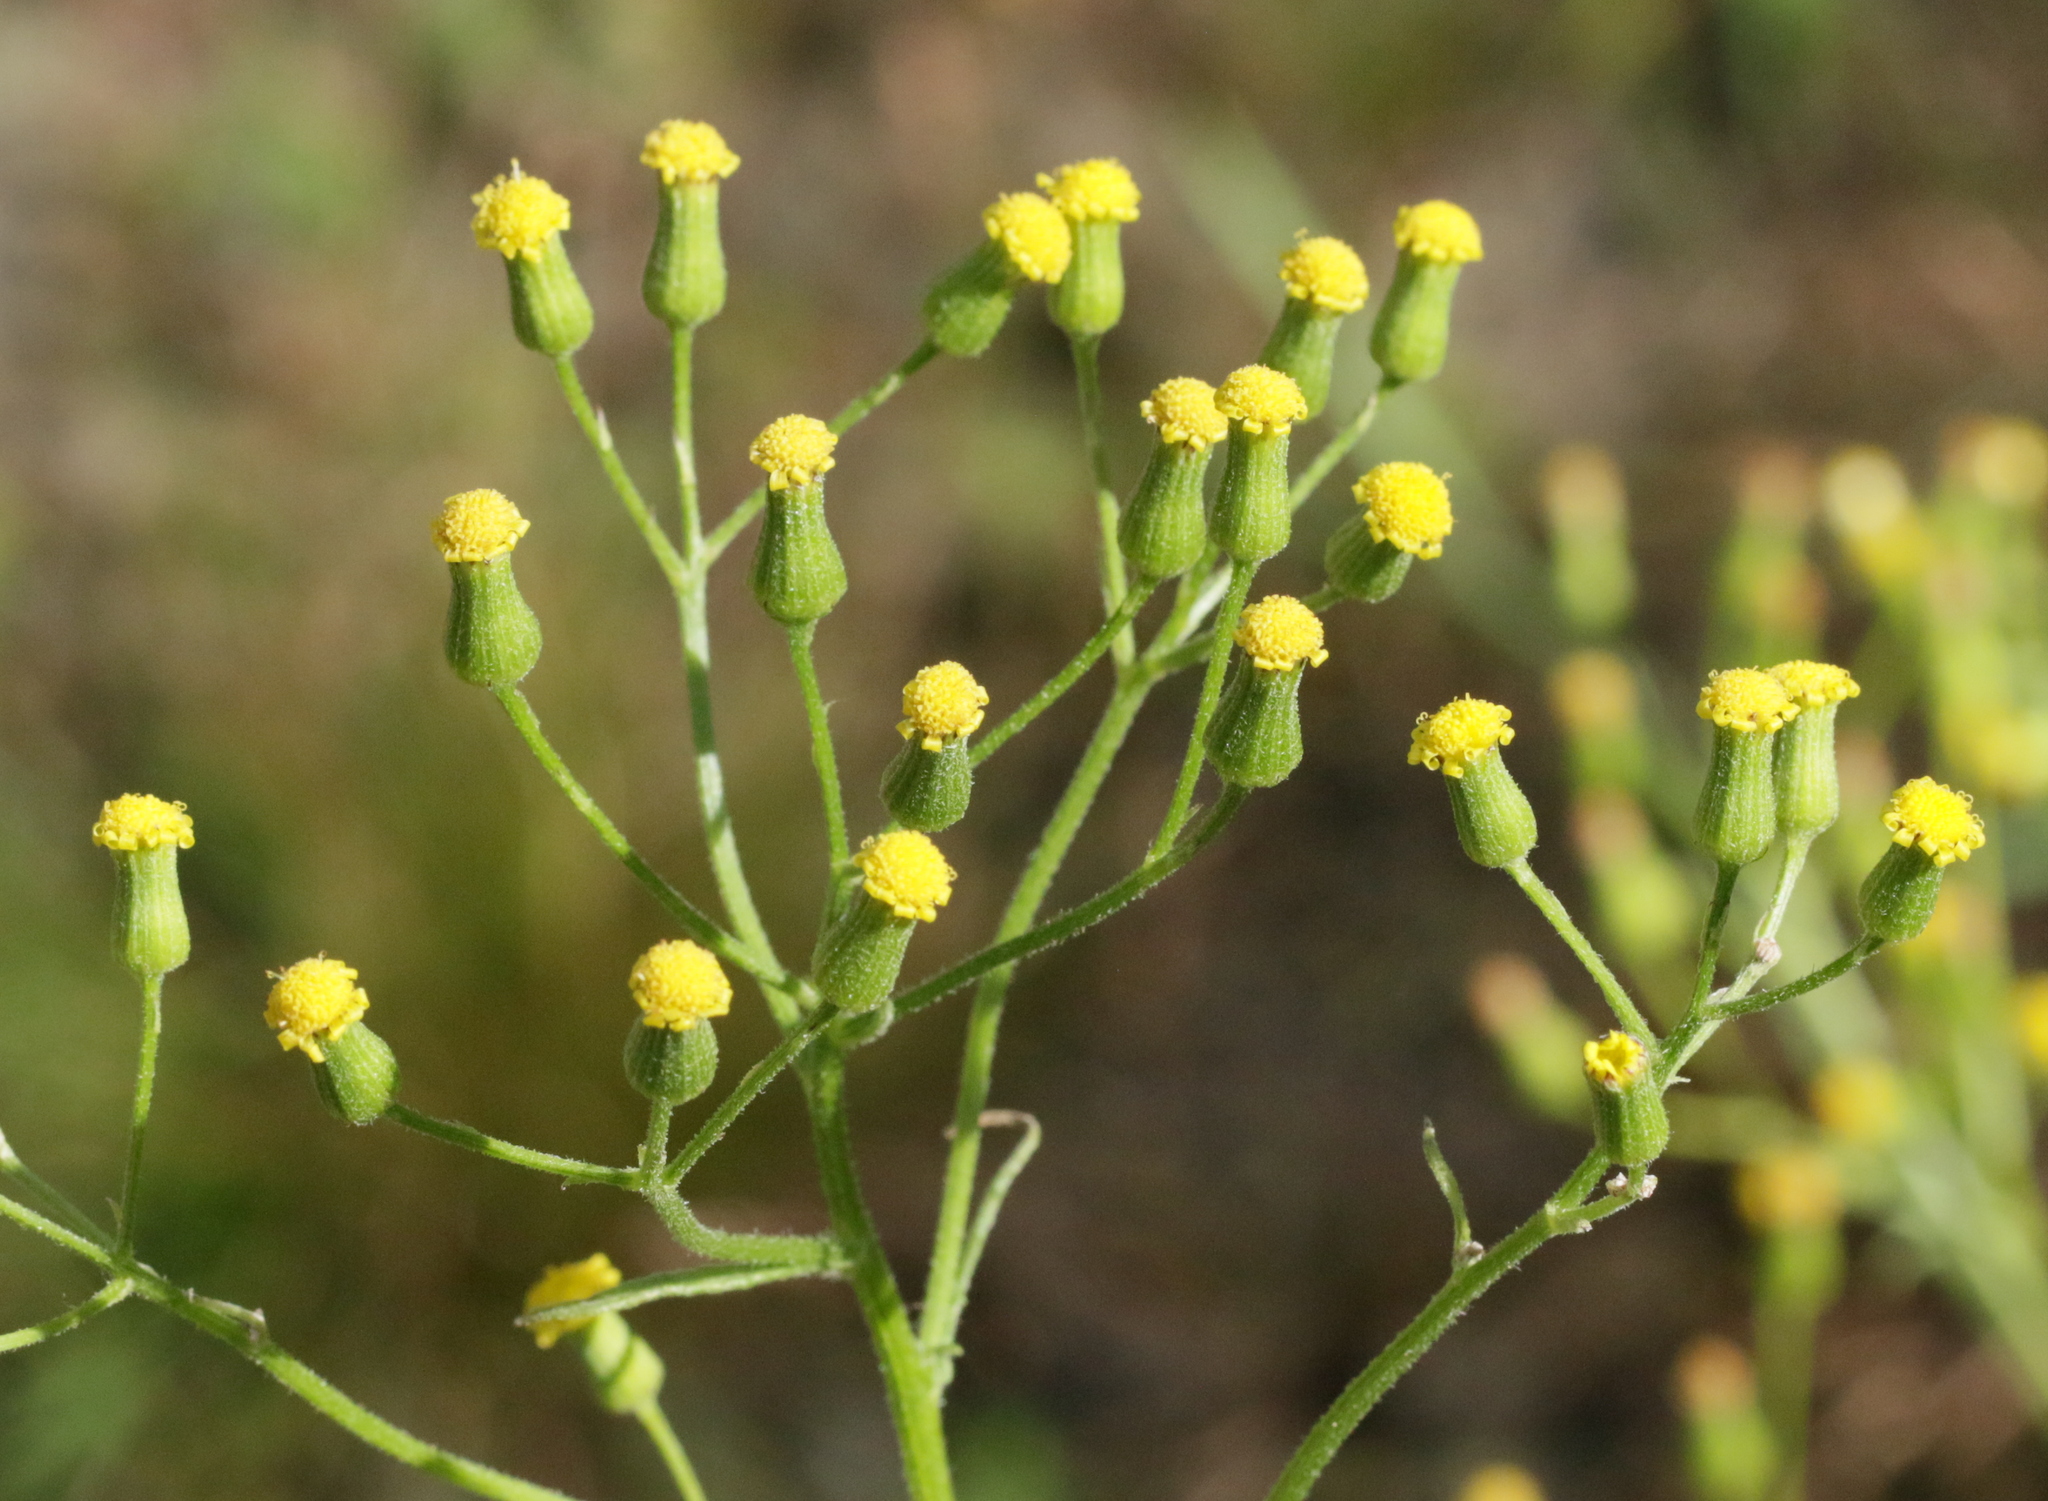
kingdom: Plantae
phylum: Tracheophyta
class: Magnoliopsida
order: Asterales
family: Asteraceae
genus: Senecio
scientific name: Senecio sylvaticus
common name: Woodland ragwort
